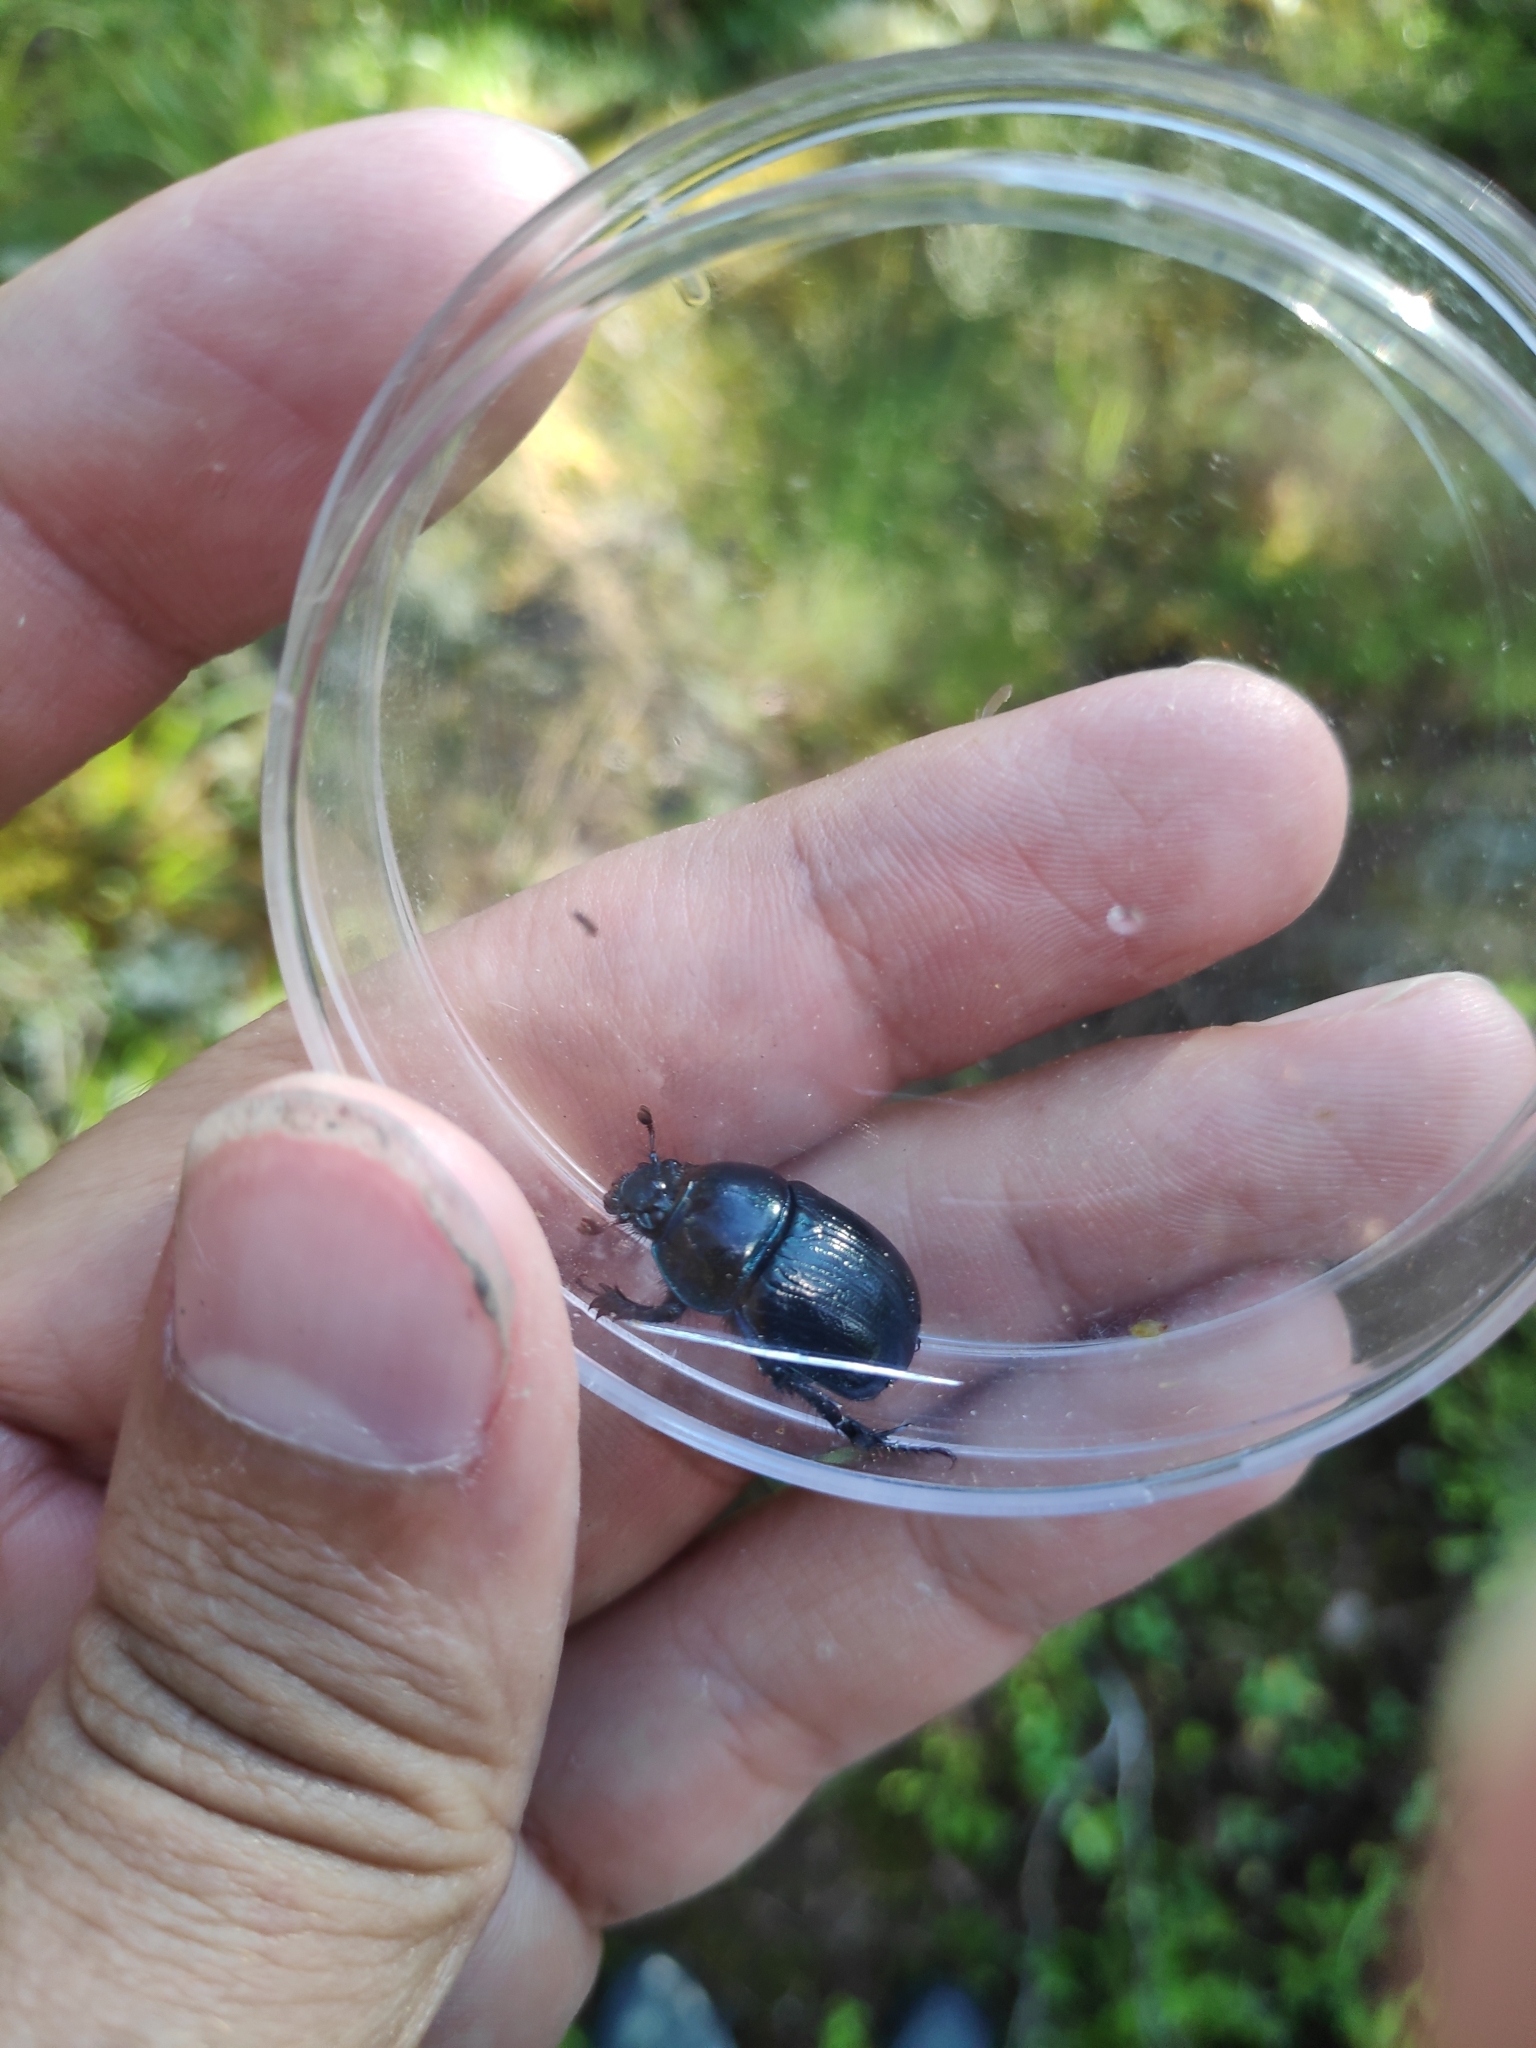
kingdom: Animalia
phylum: Arthropoda
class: Insecta
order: Coleoptera
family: Geotrupidae
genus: Anoplotrupes
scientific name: Anoplotrupes stercorosus
